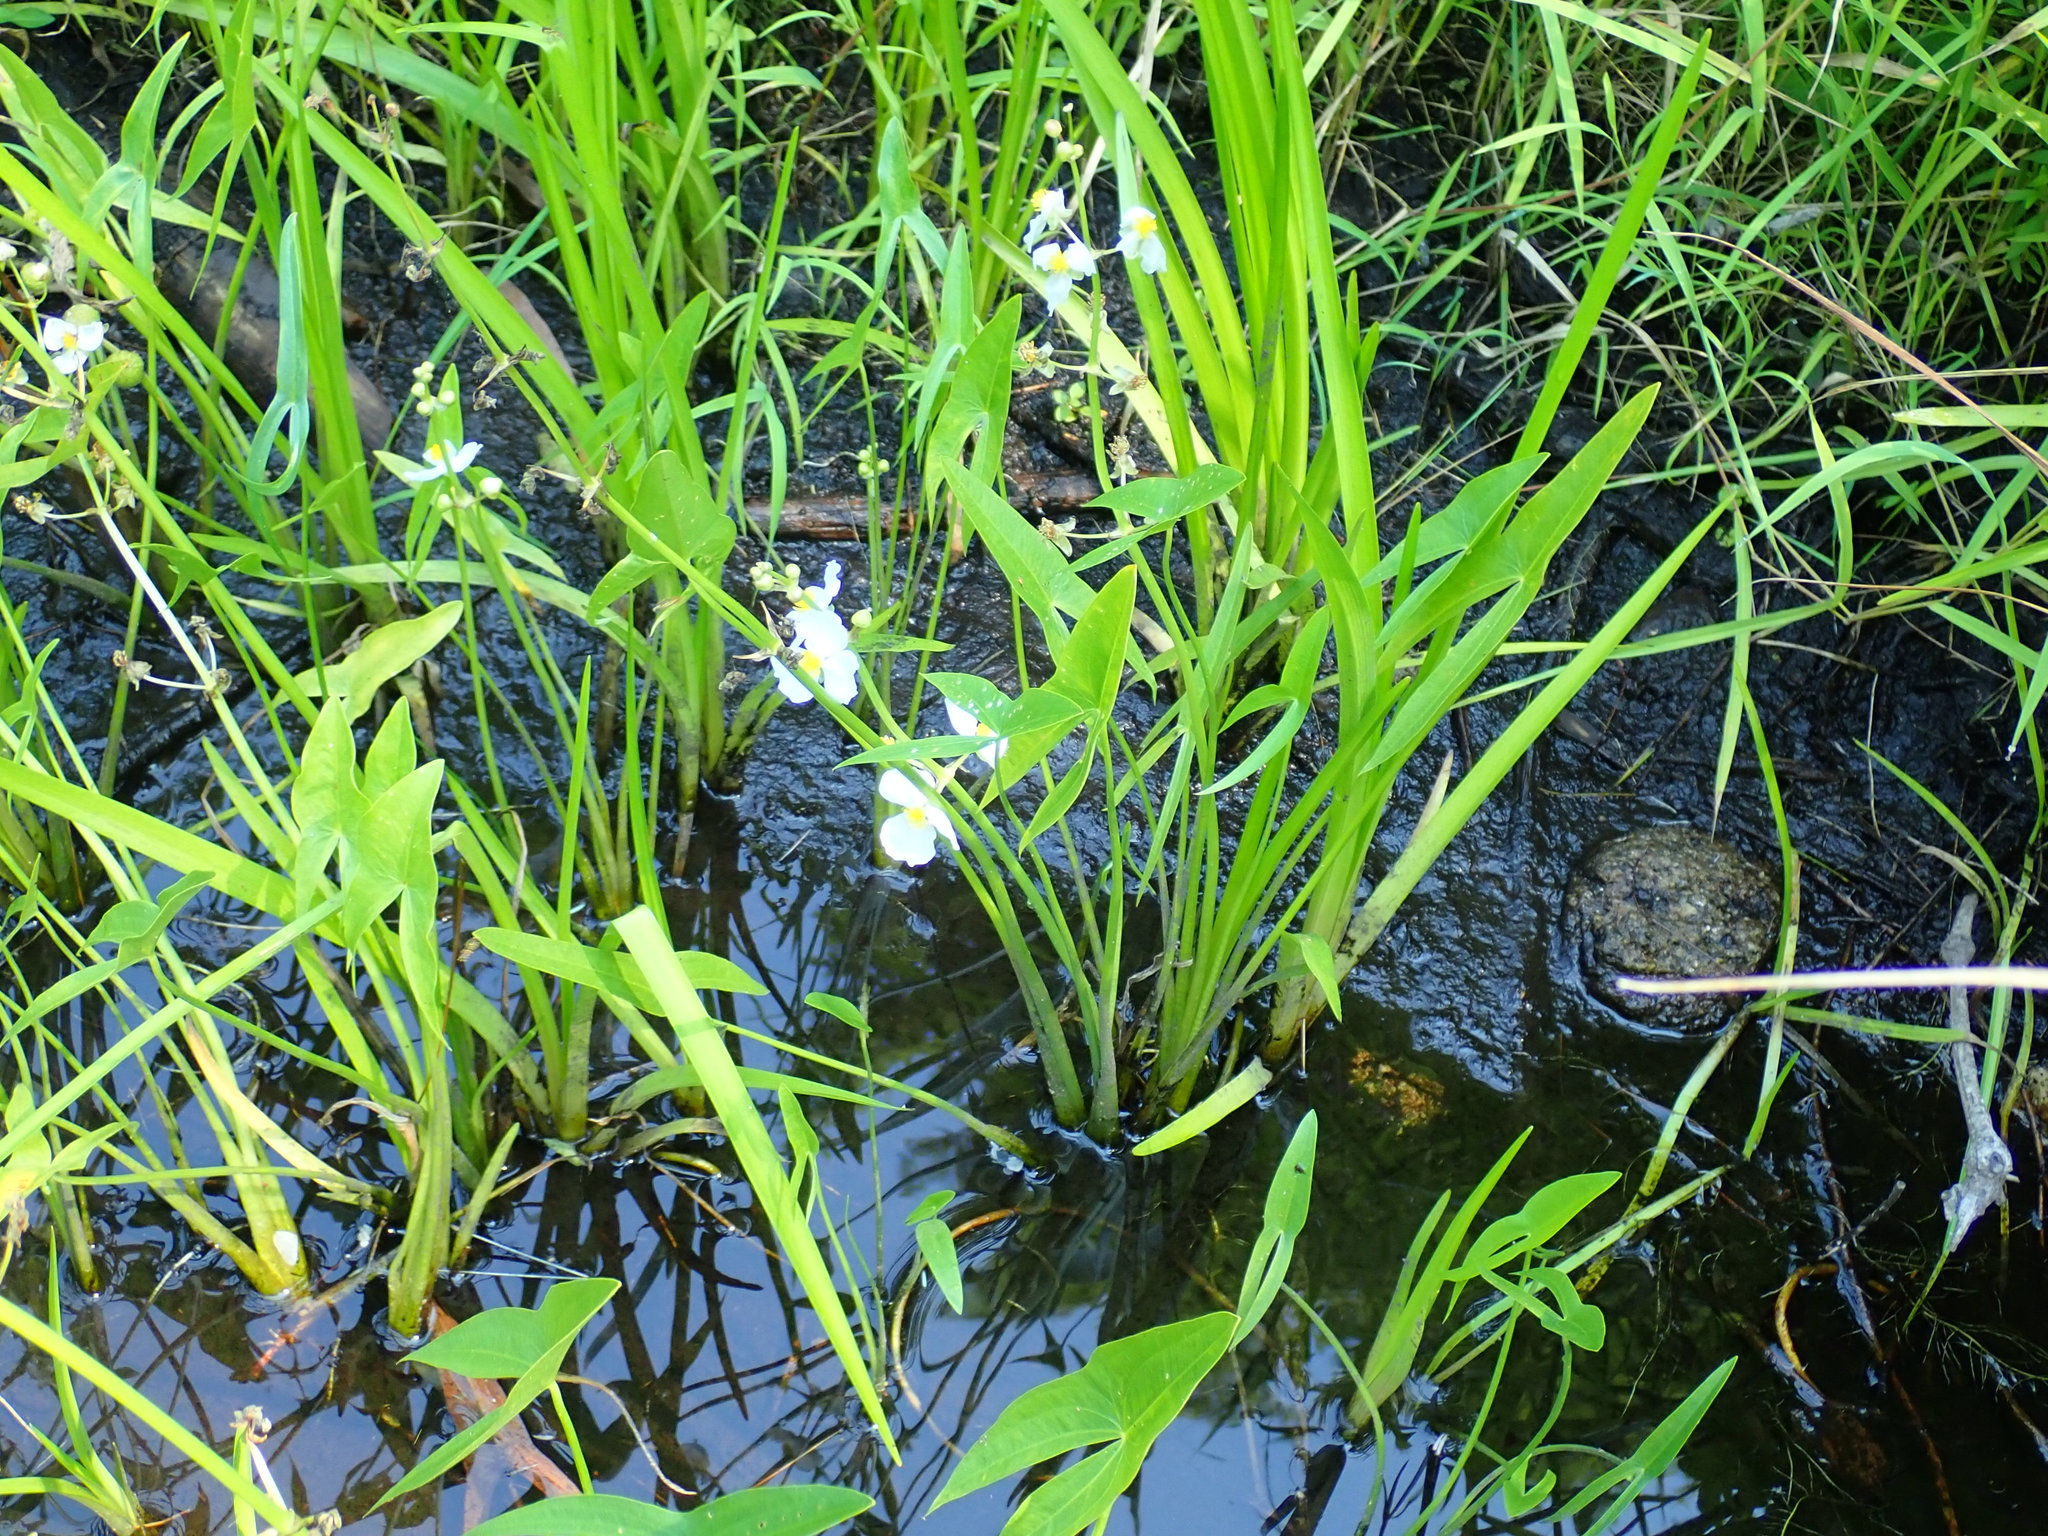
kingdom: Plantae
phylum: Tracheophyta
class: Liliopsida
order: Alismatales
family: Alismataceae
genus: Sagittaria
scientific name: Sagittaria latifolia
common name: Duck-potato
